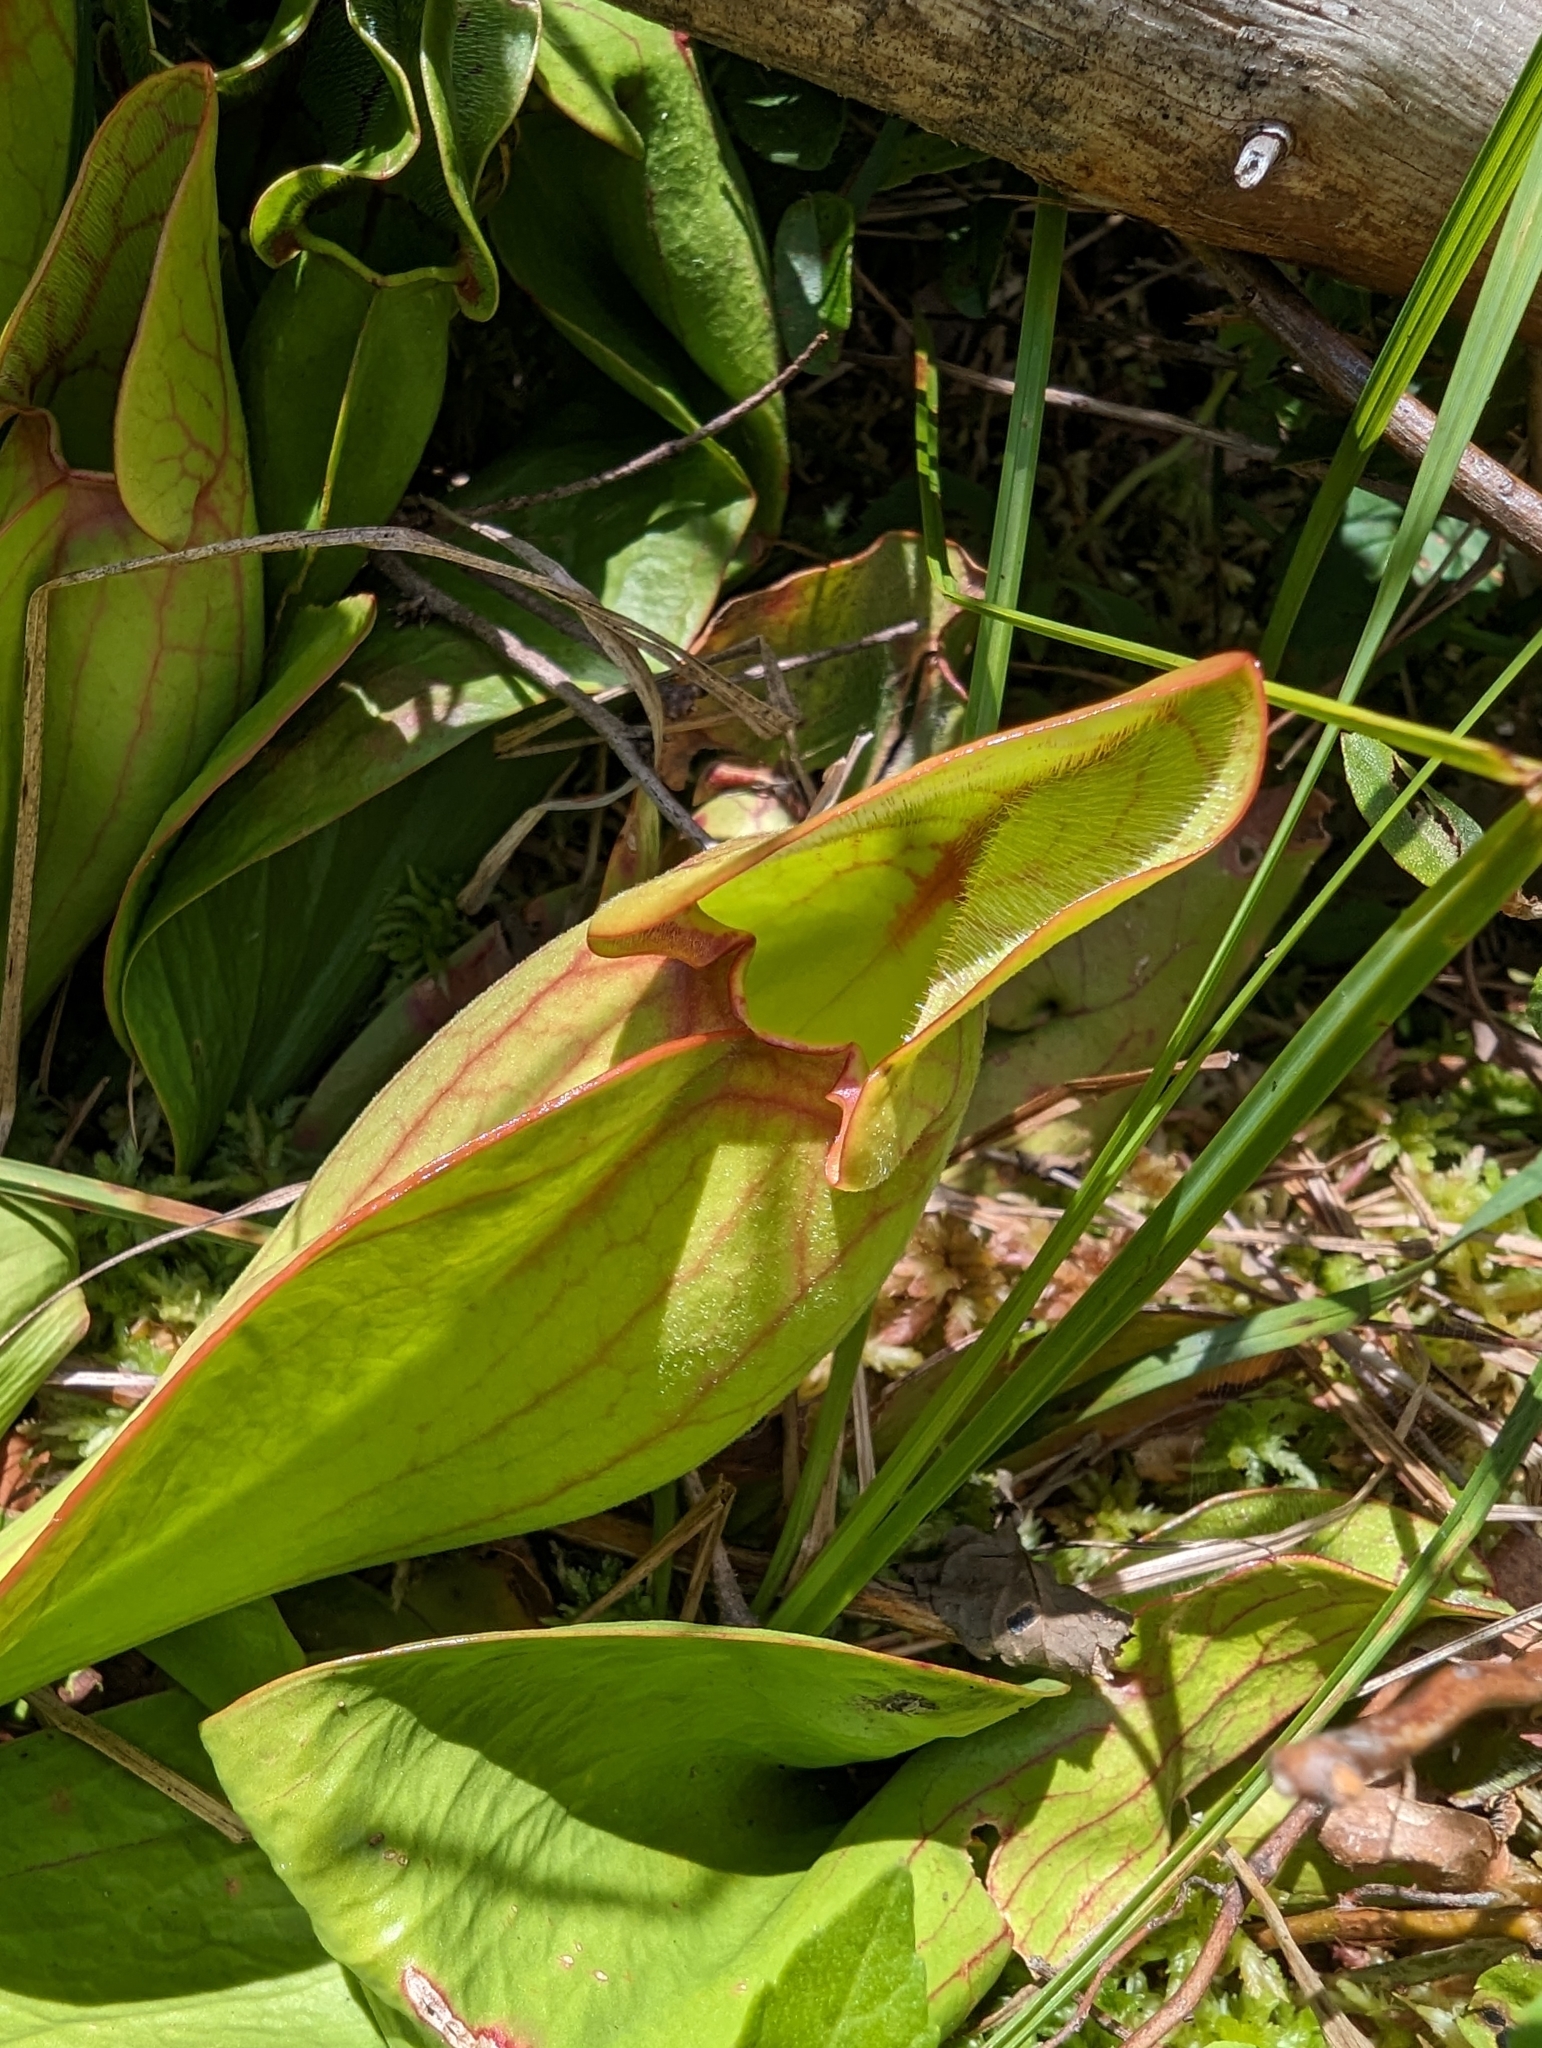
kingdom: Plantae
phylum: Tracheophyta
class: Magnoliopsida
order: Ericales
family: Sarraceniaceae
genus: Sarracenia
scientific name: Sarracenia purpurea
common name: Pitcherplant
